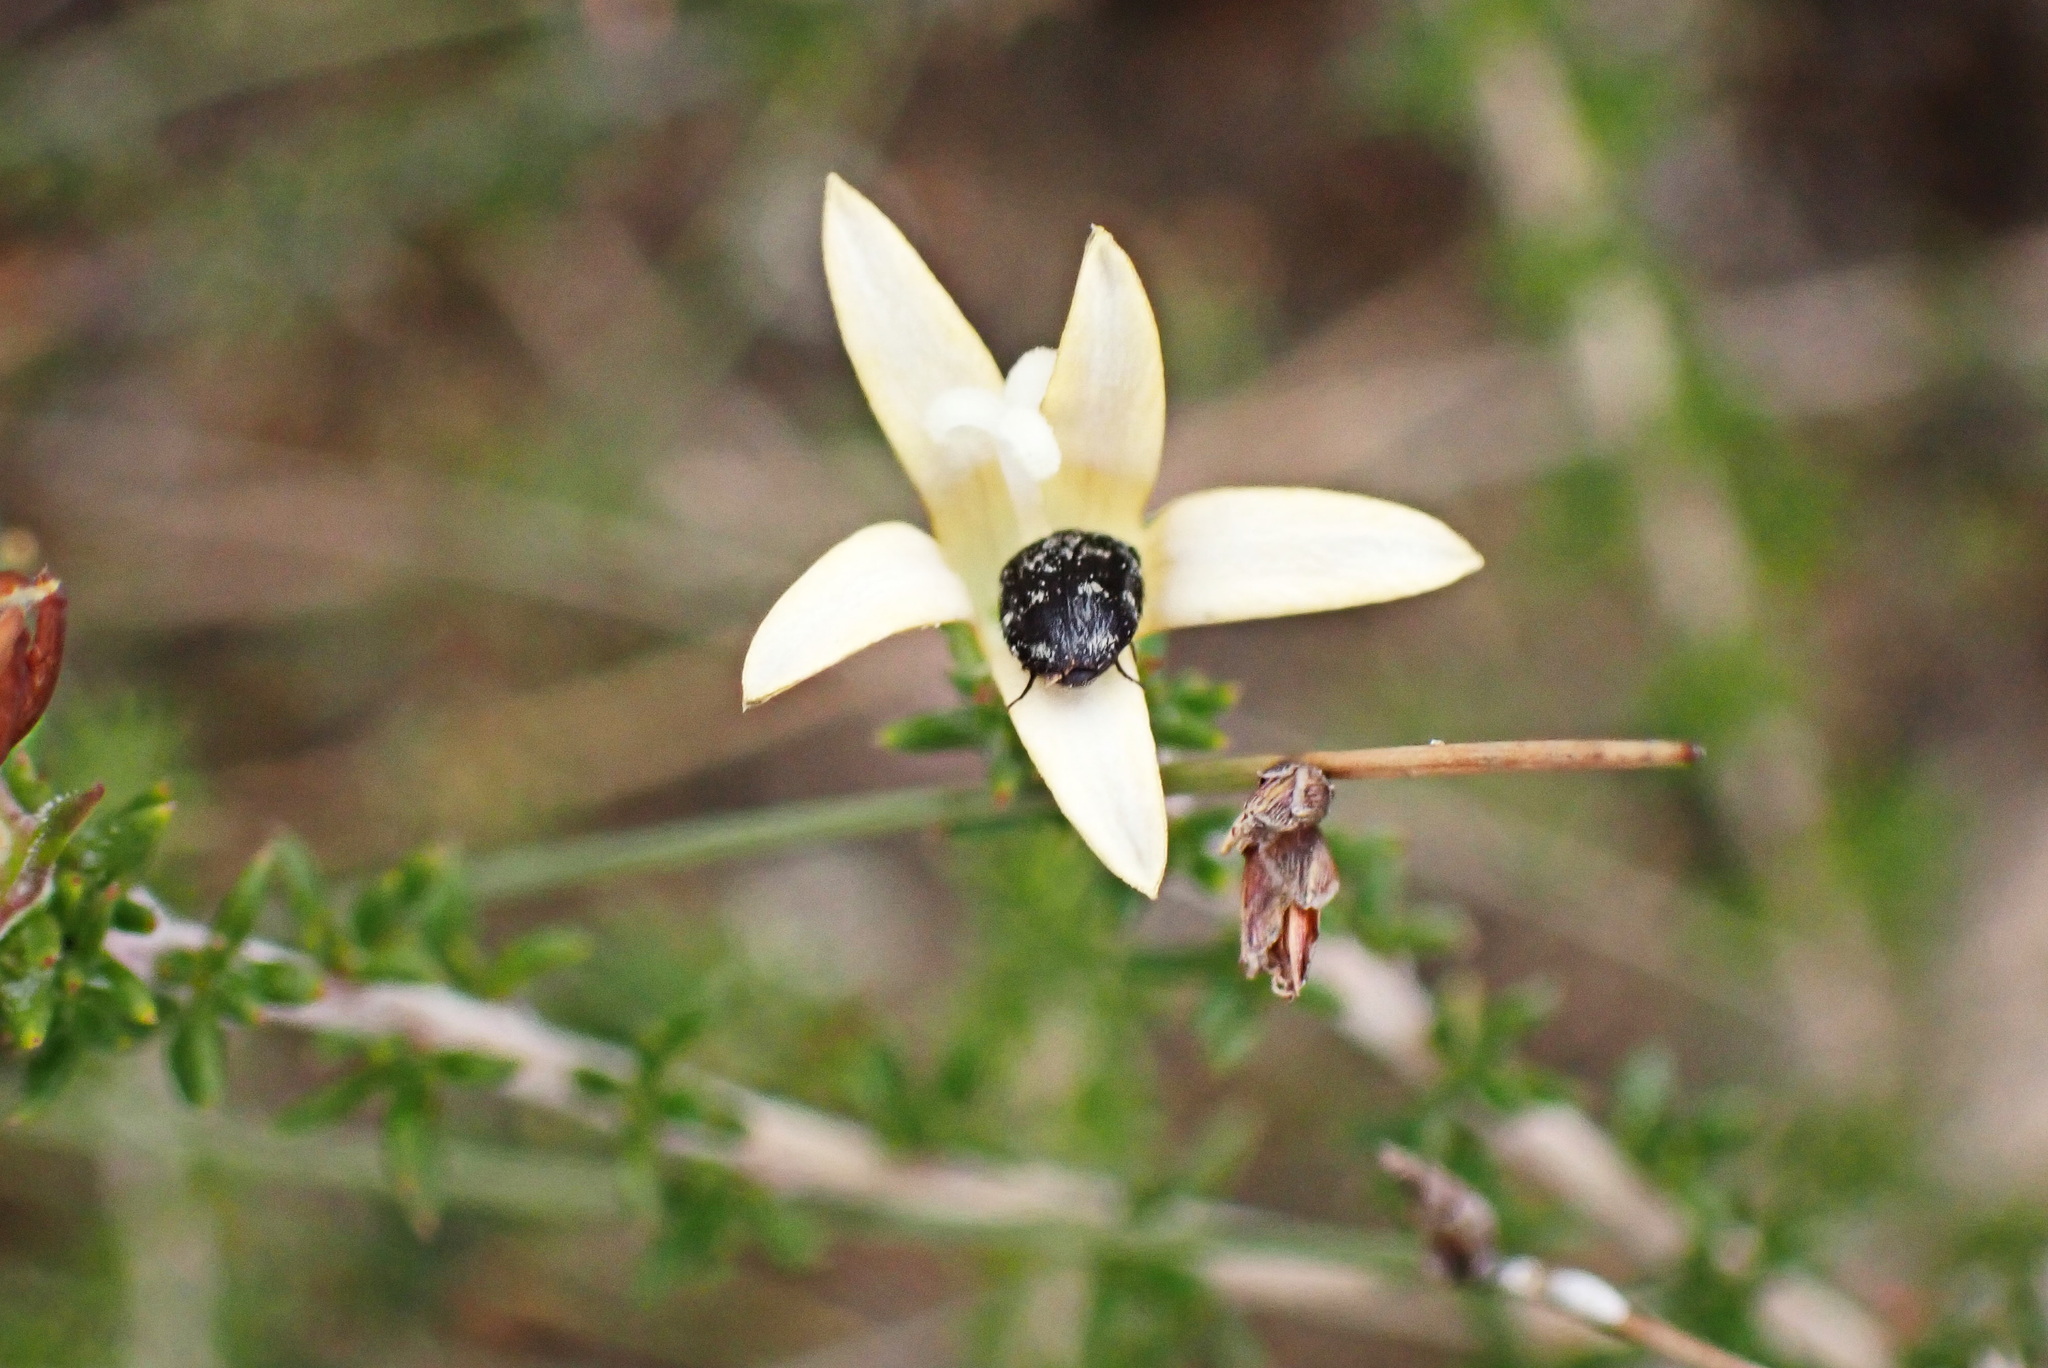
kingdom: Plantae
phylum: Tracheophyta
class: Magnoliopsida
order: Asterales
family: Campanulaceae
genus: Wahlenbergia
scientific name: Wahlenbergia tenella
